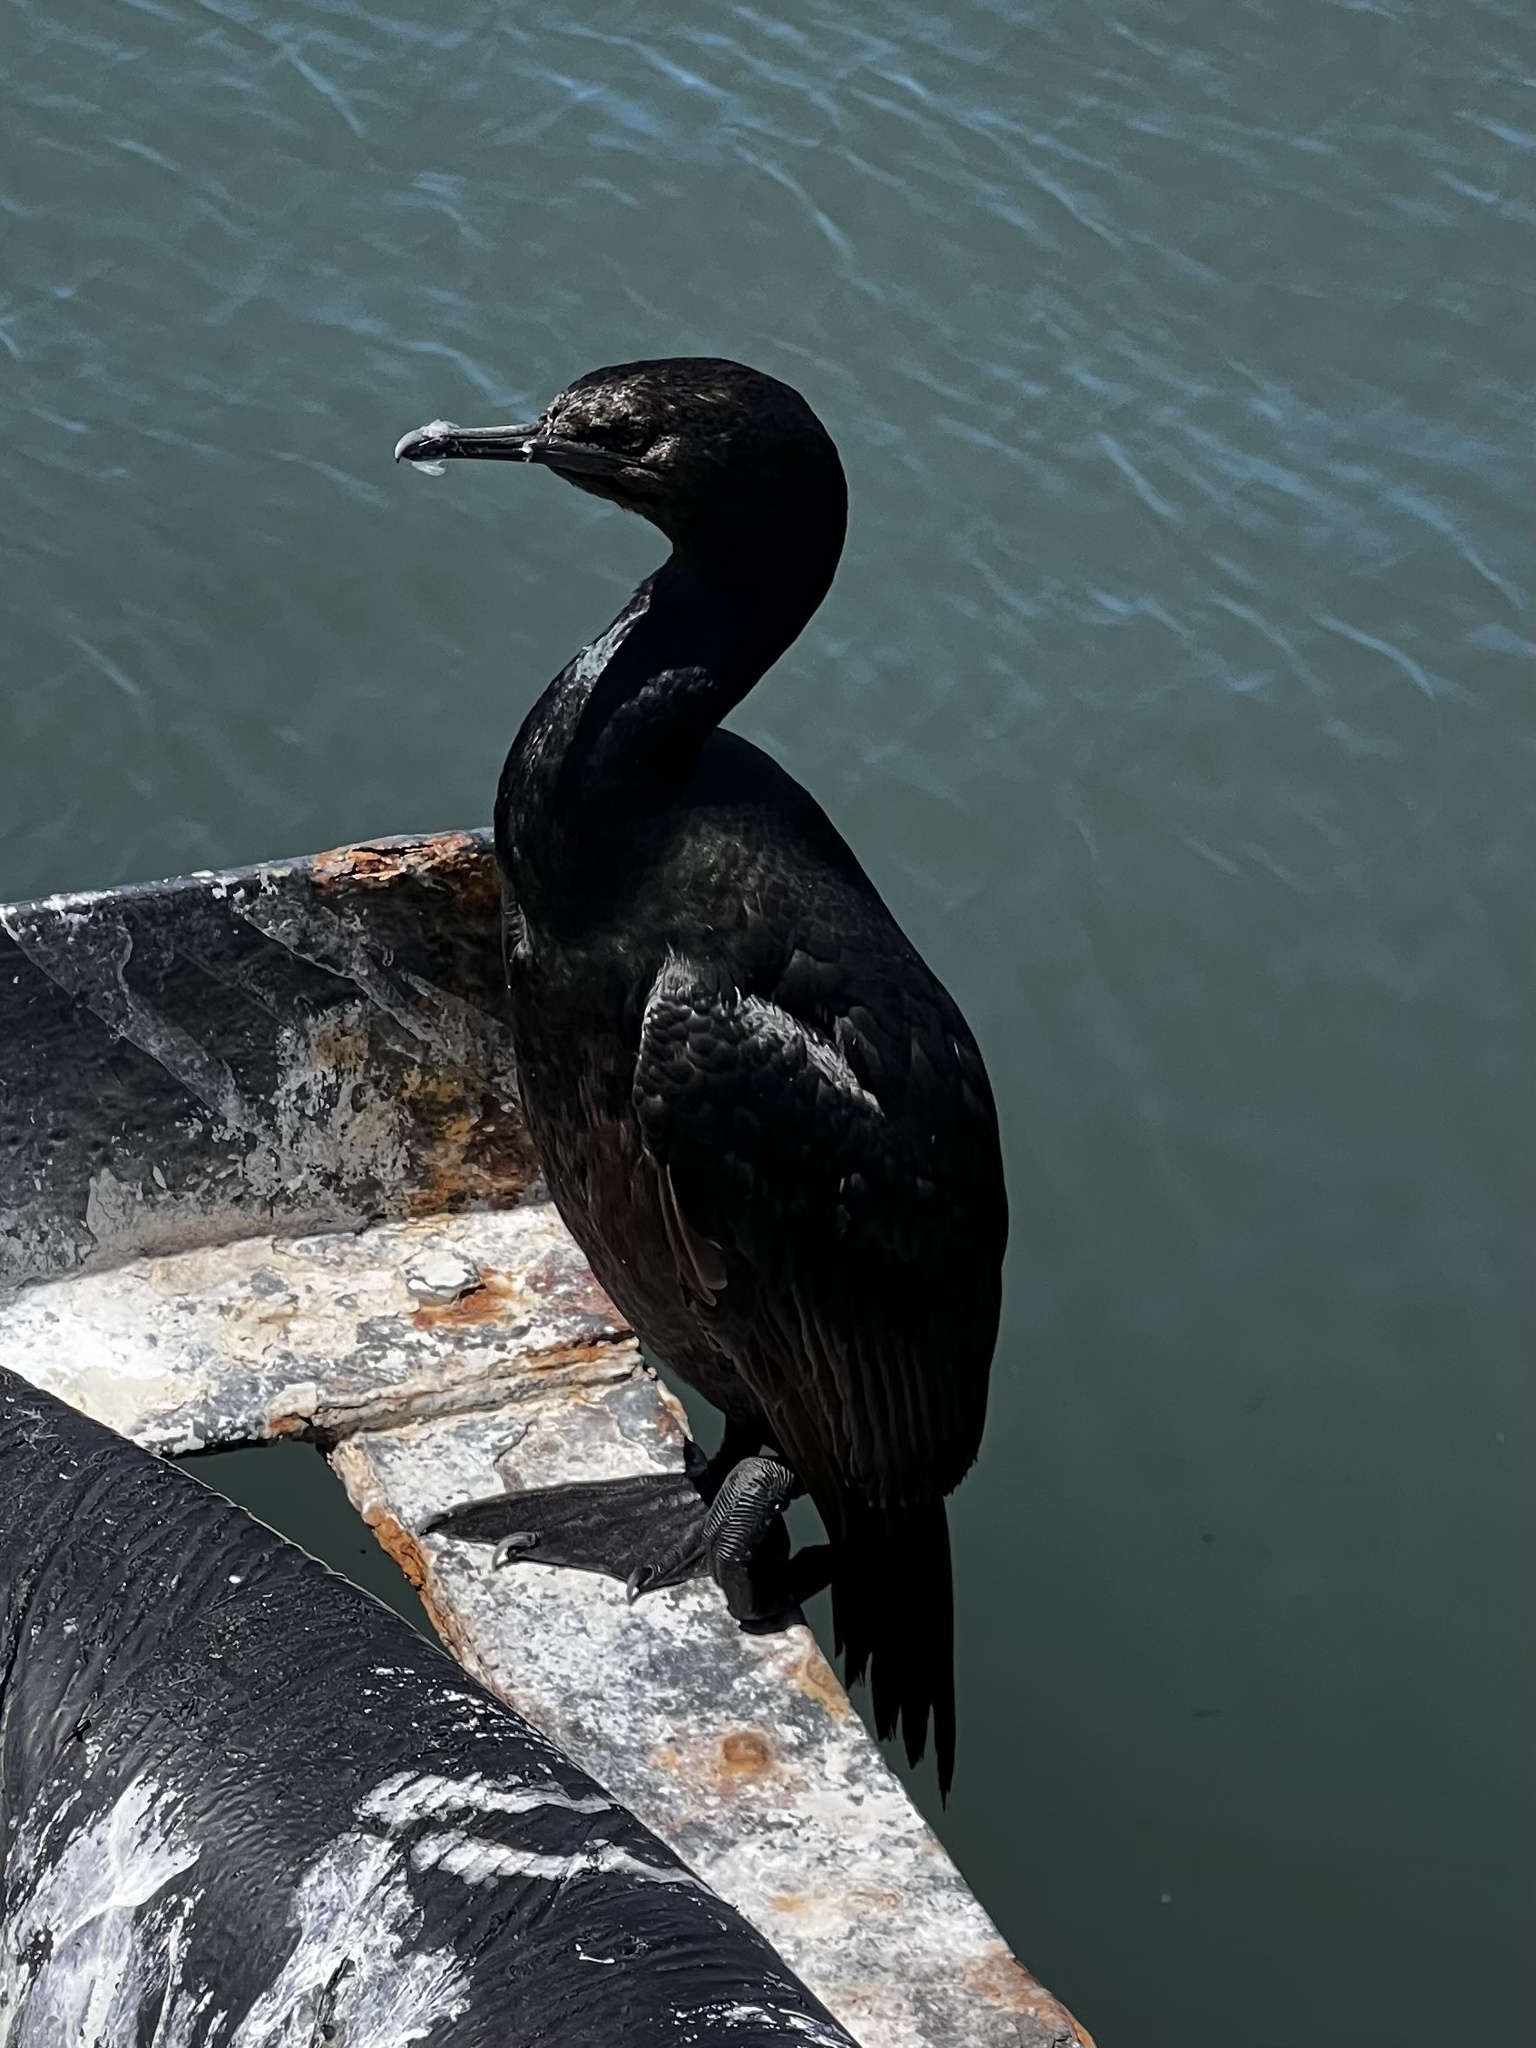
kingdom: Animalia
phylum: Chordata
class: Aves
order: Suliformes
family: Phalacrocoracidae
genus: Phalacrocorax
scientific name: Phalacrocorax pelagicus
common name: Pelagic cormorant
